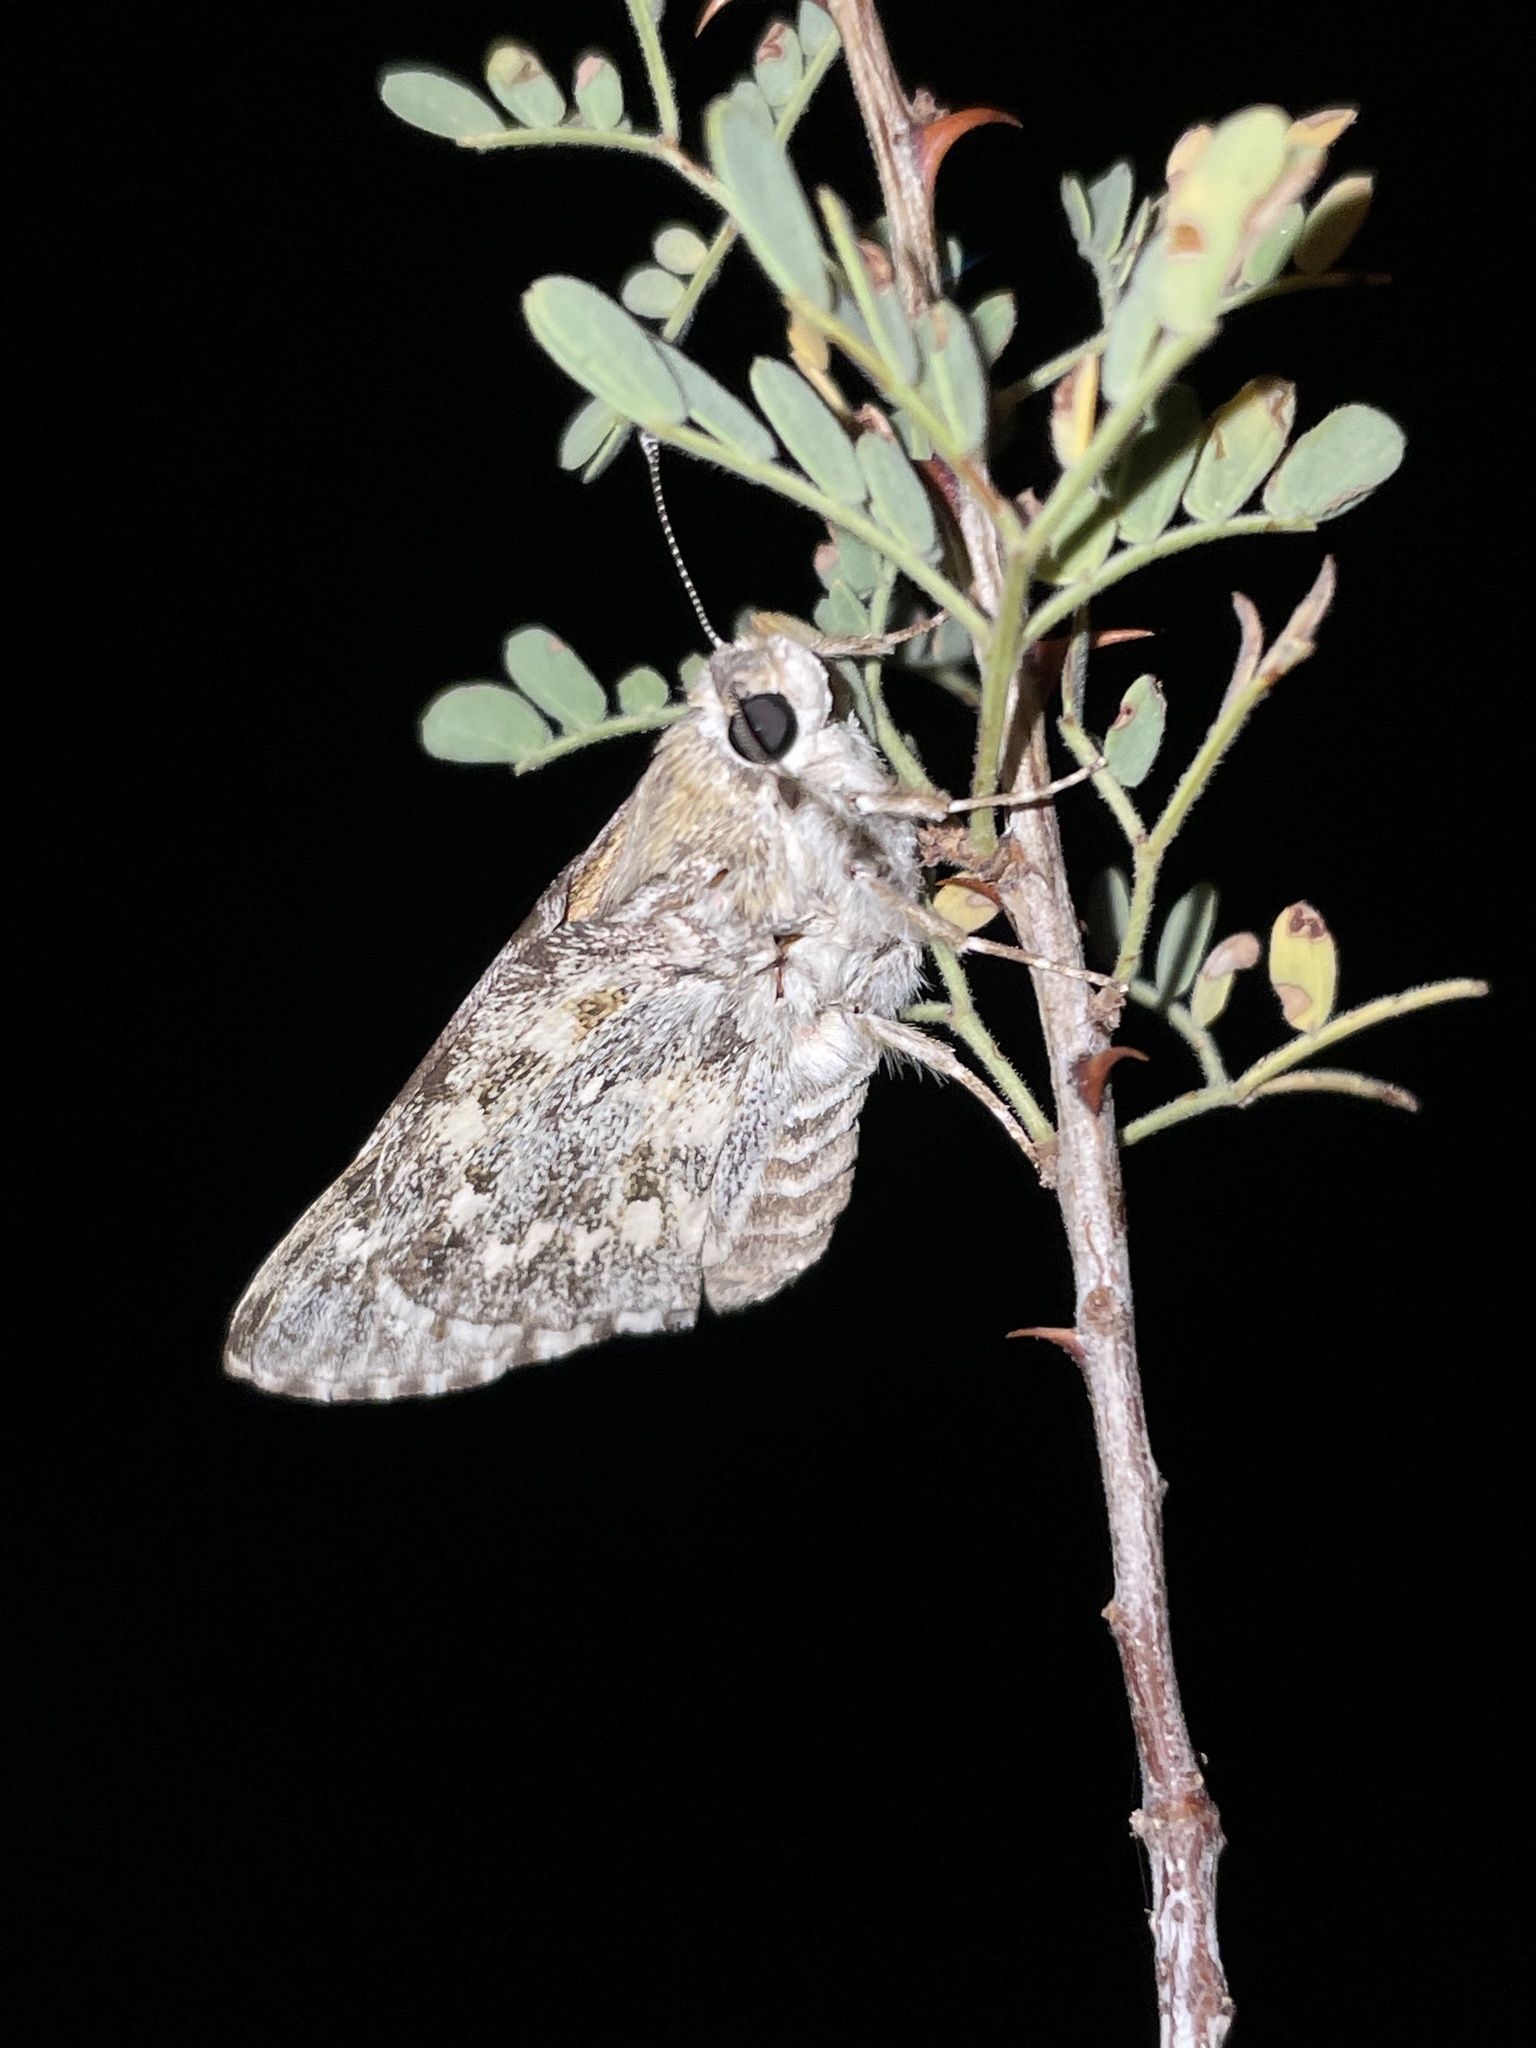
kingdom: Animalia
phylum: Arthropoda
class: Insecta
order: Lepidoptera
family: Hesperiidae
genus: Agathymus
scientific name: Agathymus stephensi
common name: California giant-skipper
